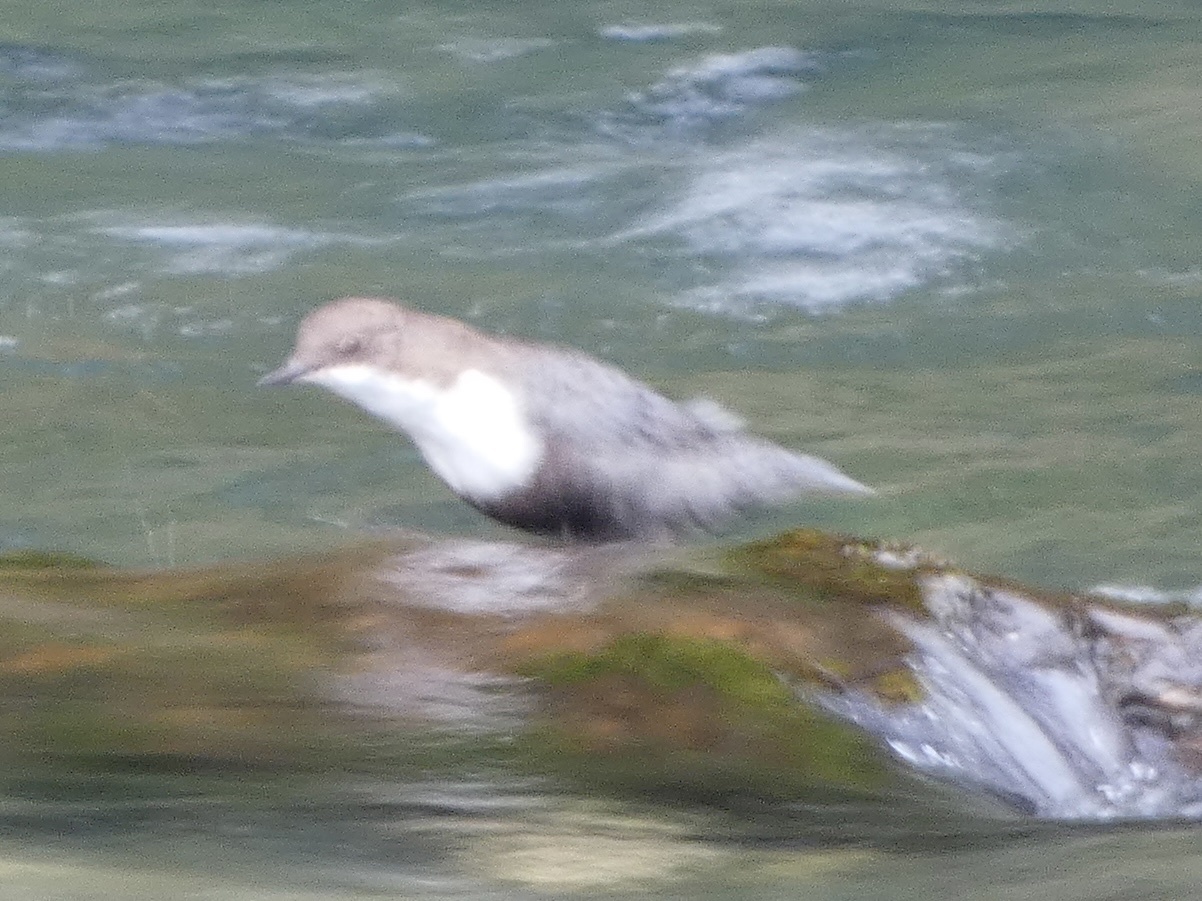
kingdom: Animalia
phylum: Chordata
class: Aves
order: Passeriformes
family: Cinclidae
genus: Cinclus
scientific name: Cinclus cinclus
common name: White-throated dipper
